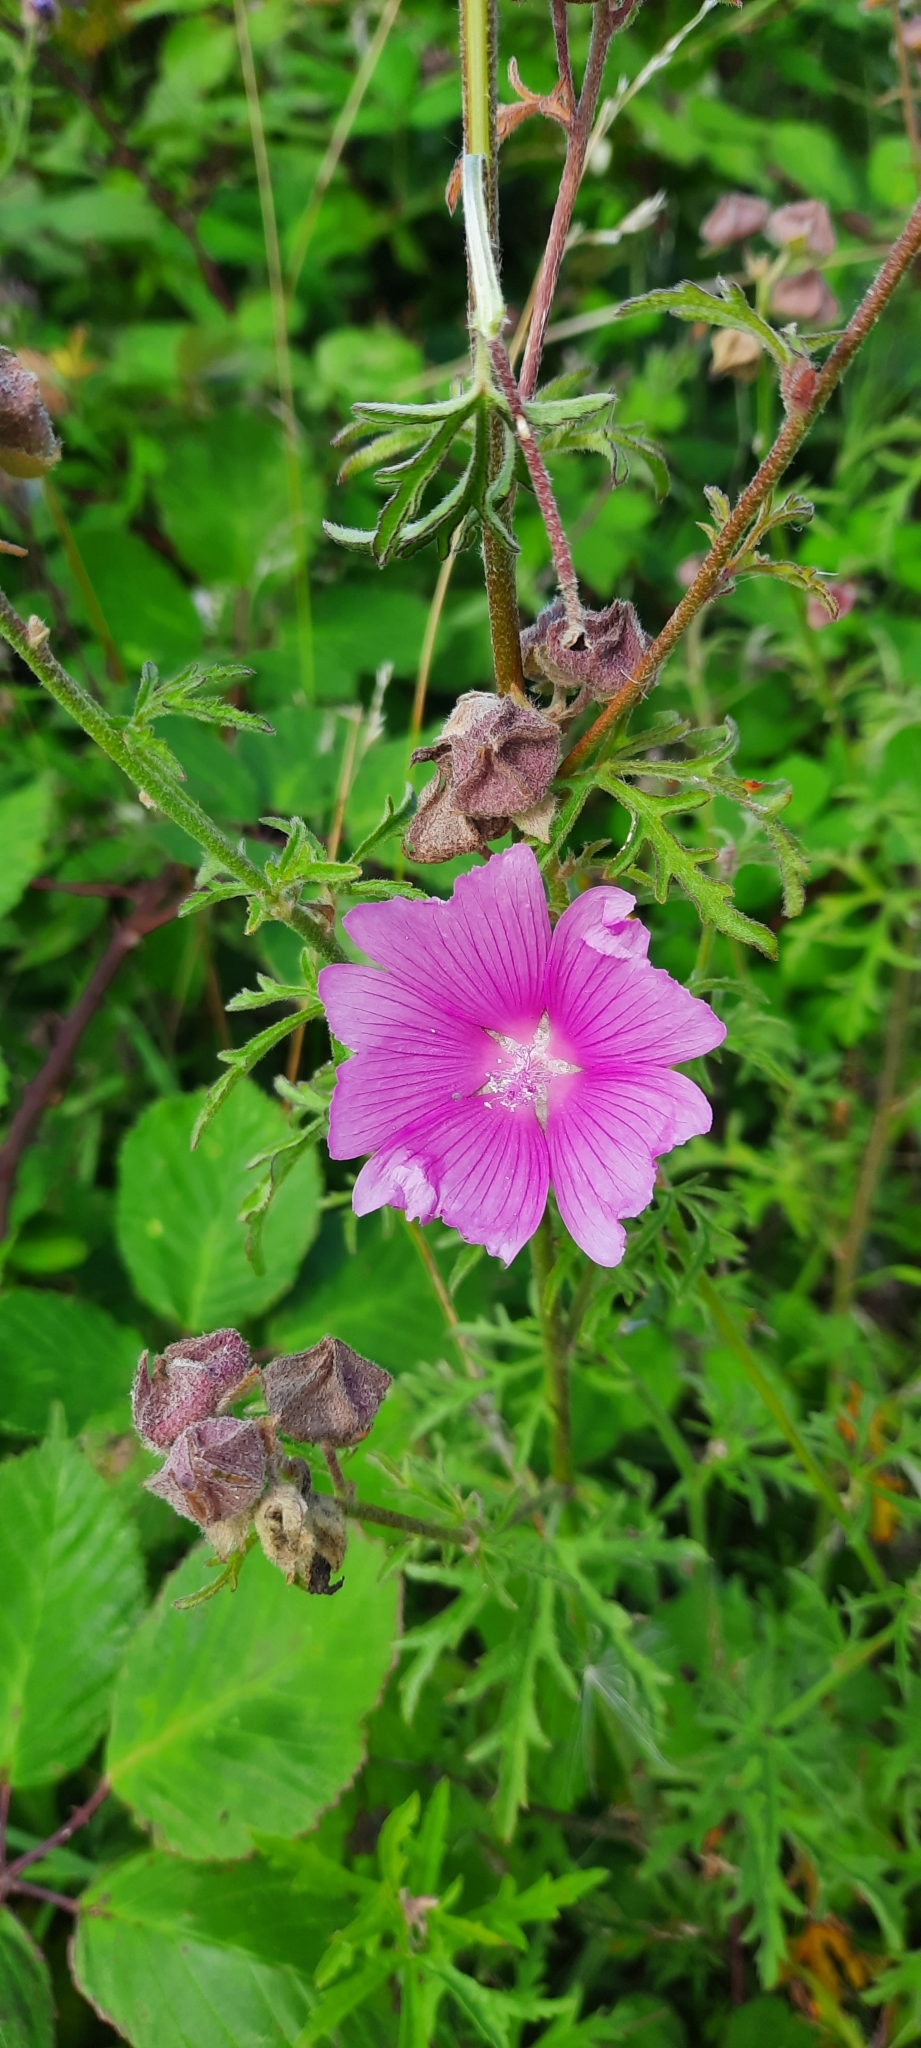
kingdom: Plantae
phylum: Tracheophyta
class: Magnoliopsida
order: Malvales
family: Malvaceae
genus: Malva
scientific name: Malva moschata
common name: Musk mallow
